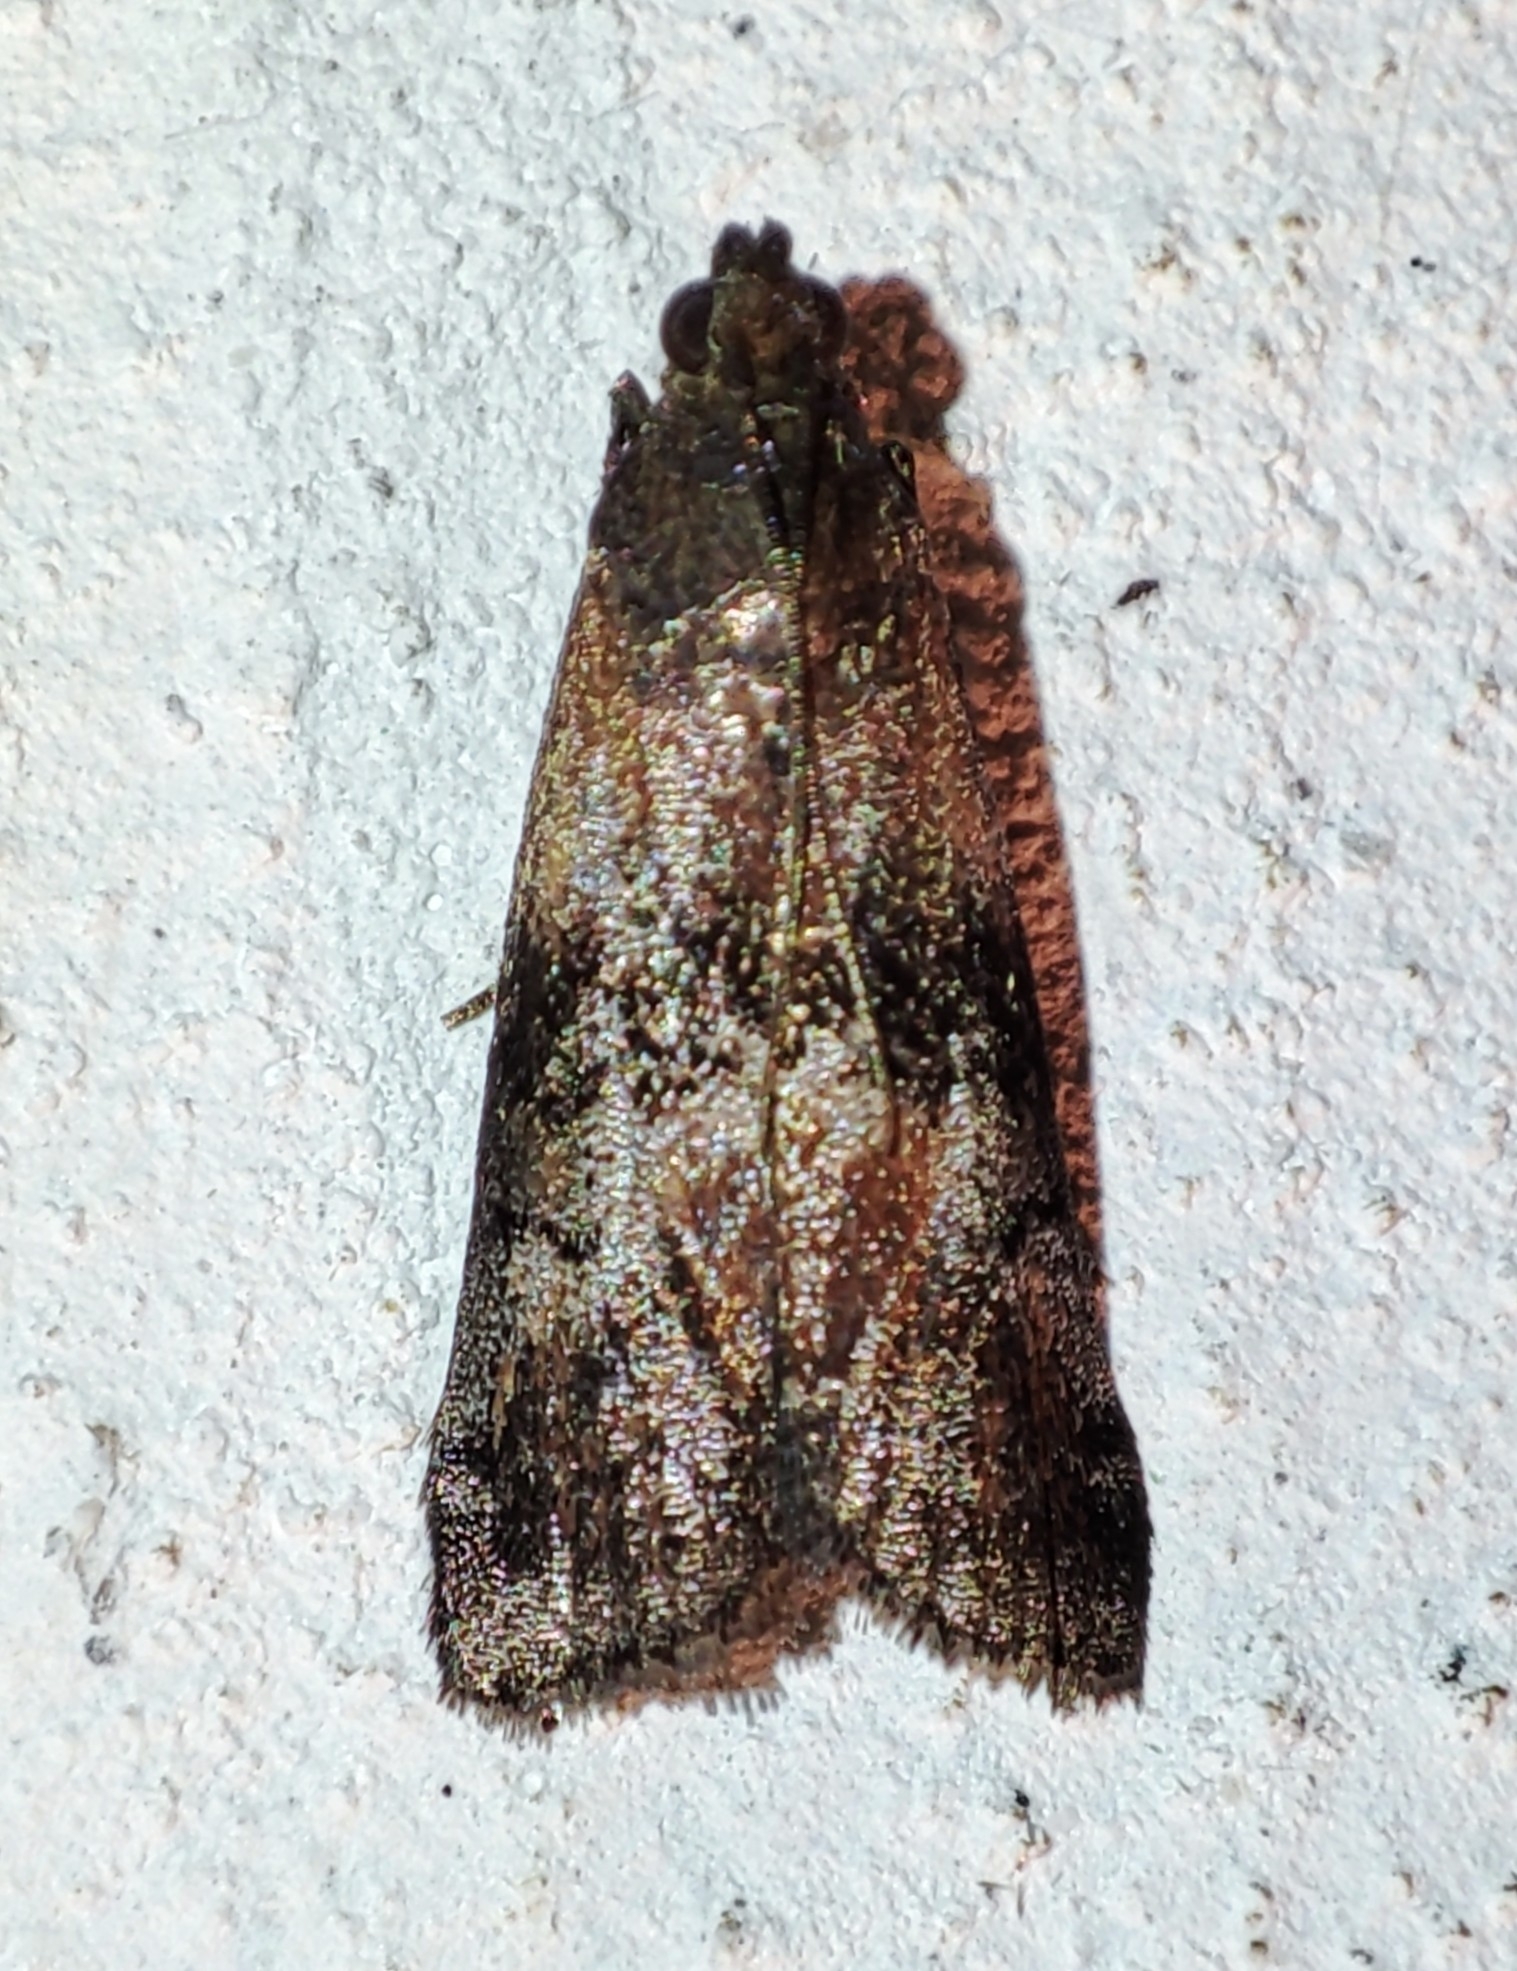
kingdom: Animalia
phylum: Arthropoda
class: Insecta
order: Lepidoptera
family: Pyralidae
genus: Rhodophaea
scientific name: Rhodophaea formosa
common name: Beautiful knot-horn
